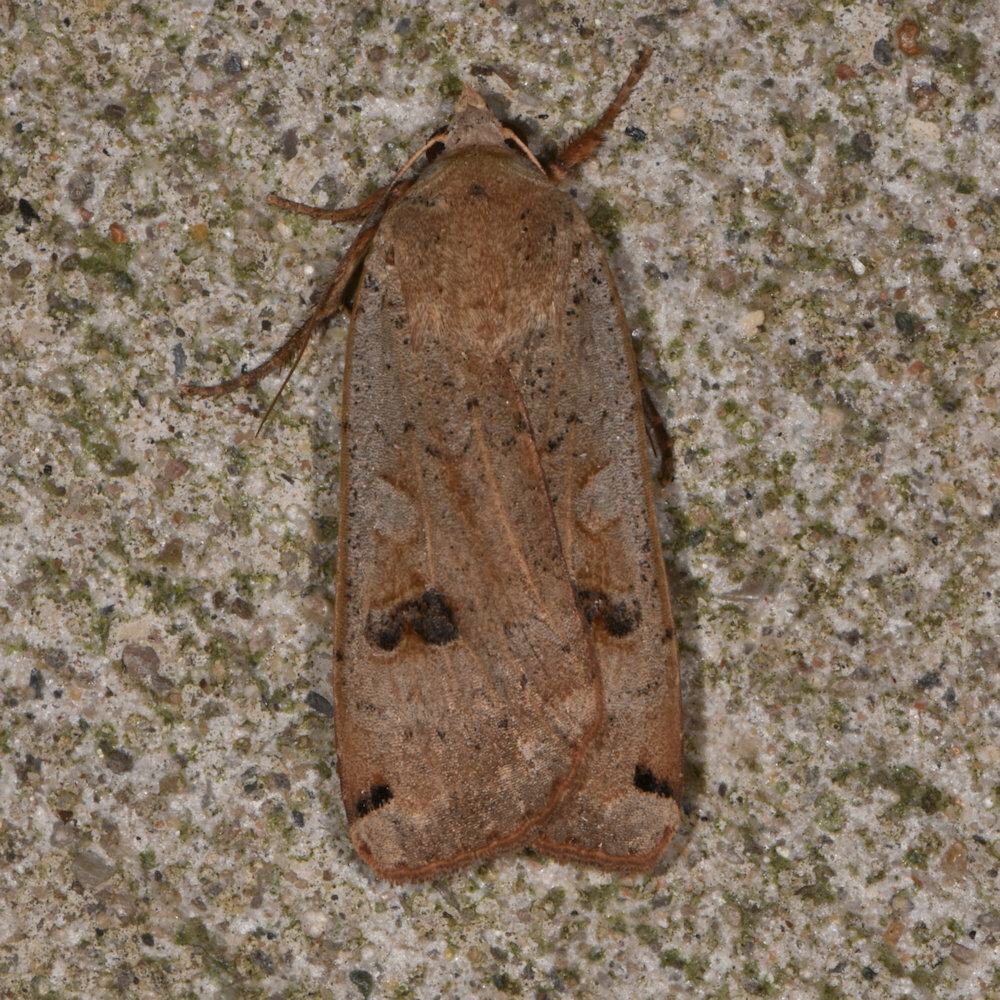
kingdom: Animalia
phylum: Arthropoda
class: Insecta
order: Lepidoptera
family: Noctuidae
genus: Noctua
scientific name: Noctua pronuba
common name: Large yellow underwing
